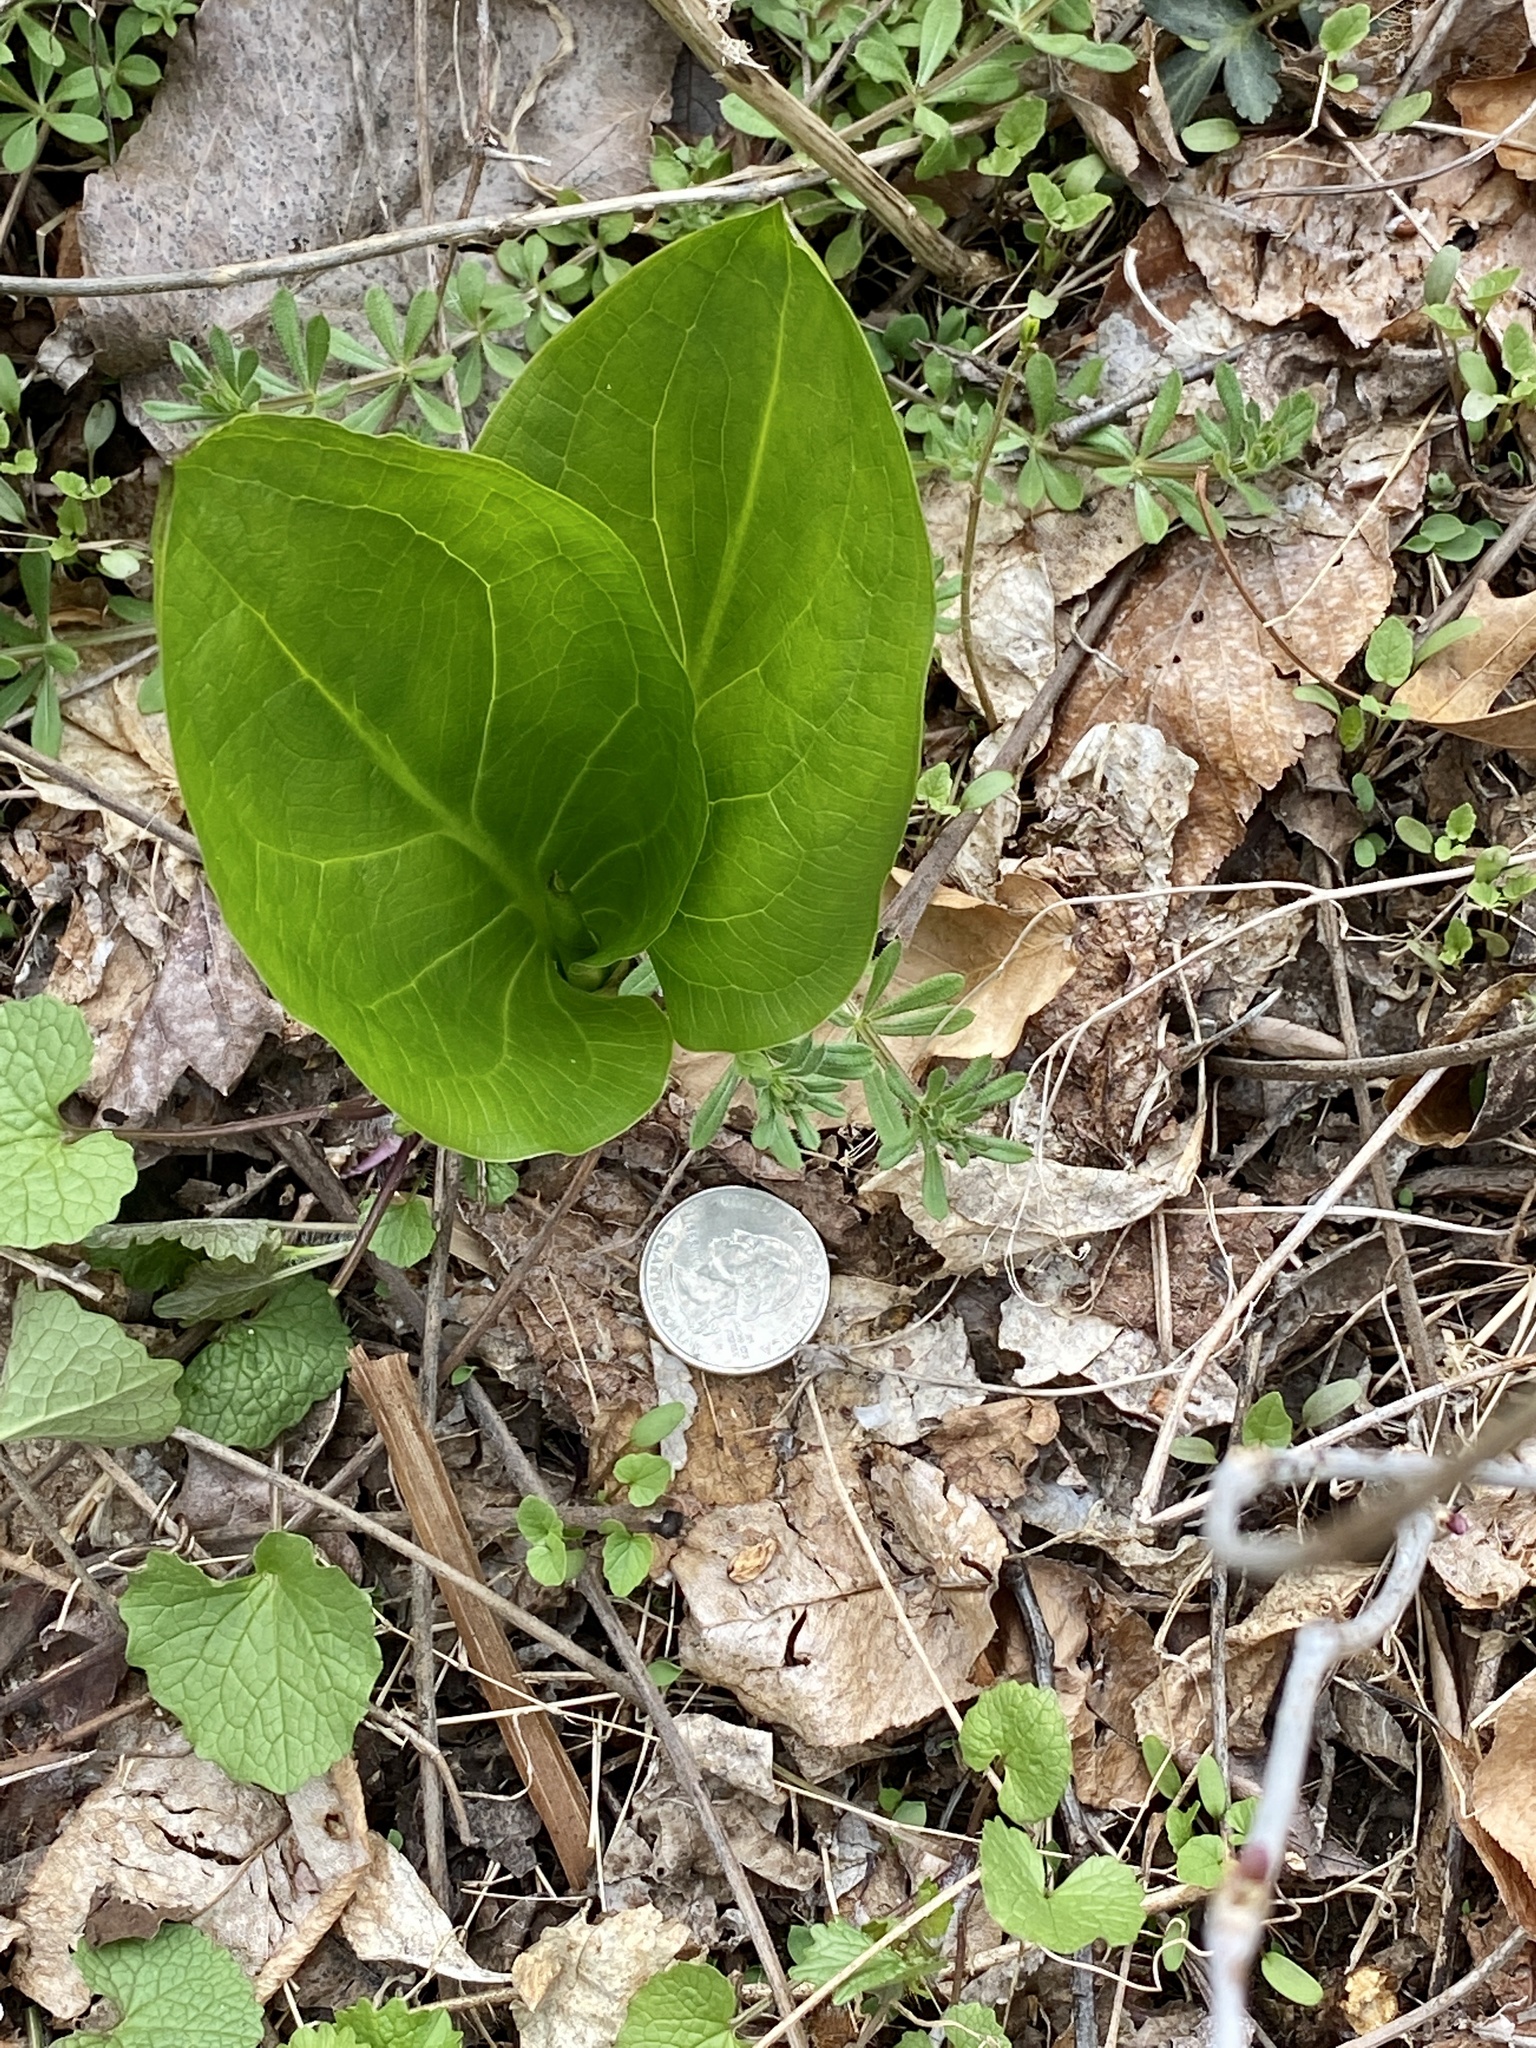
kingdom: Plantae
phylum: Tracheophyta
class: Liliopsida
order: Alismatales
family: Araceae
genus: Symplocarpus
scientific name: Symplocarpus foetidus
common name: Eastern skunk cabbage
